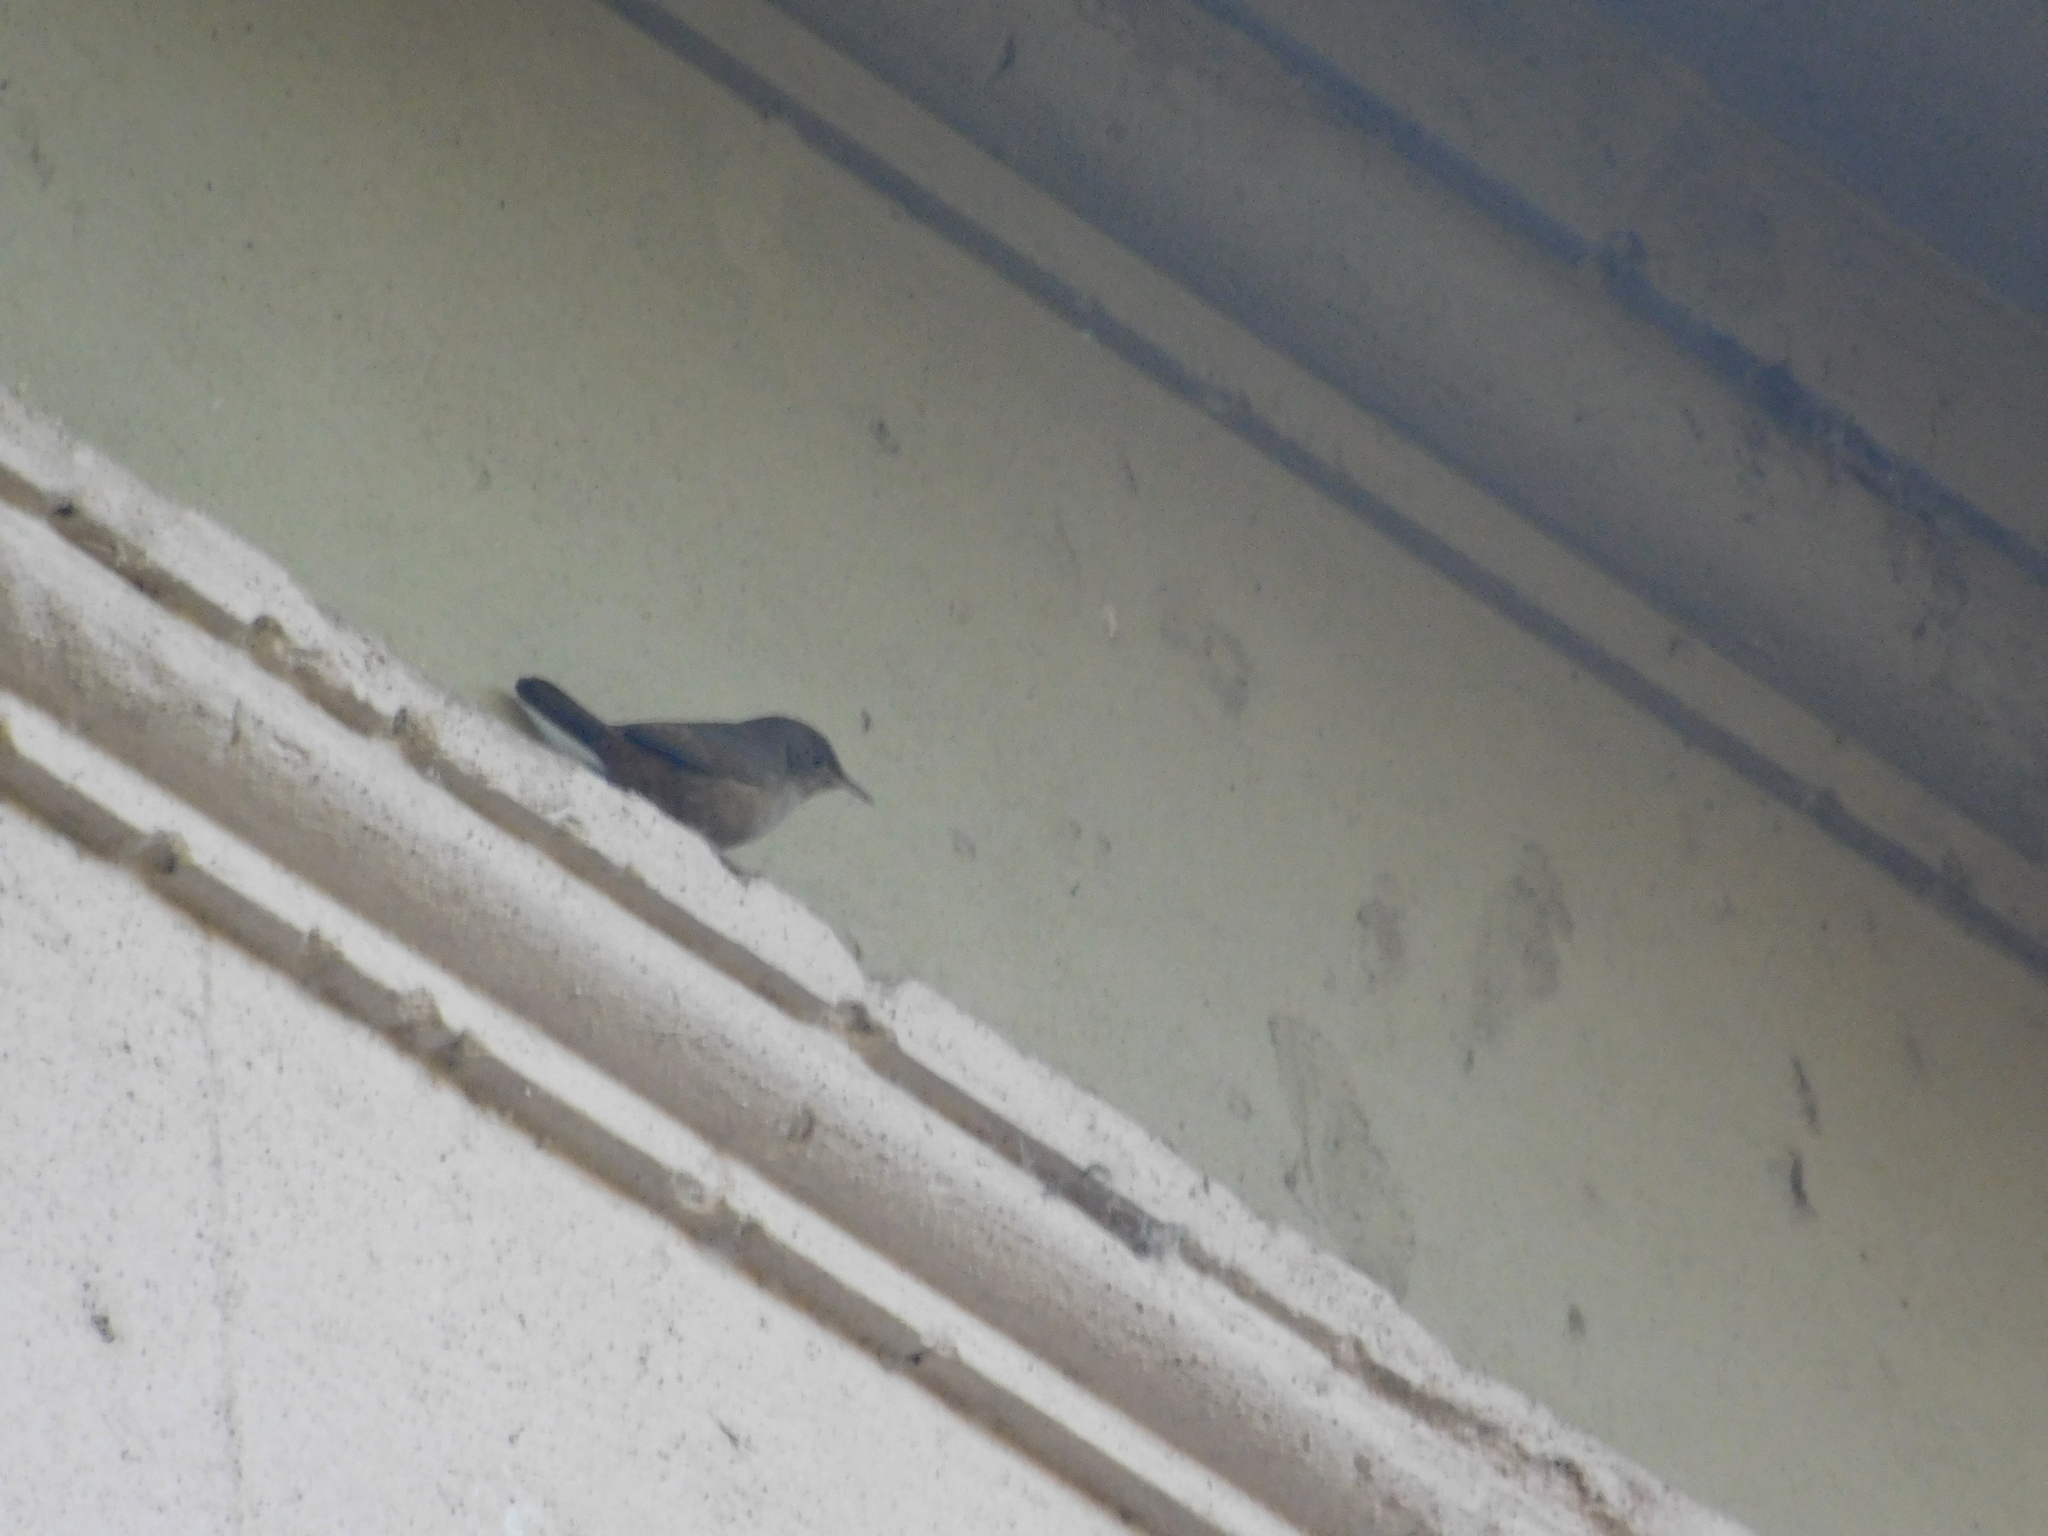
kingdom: Animalia
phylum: Chordata
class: Aves
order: Passeriformes
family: Troglodytidae
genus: Troglodytes
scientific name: Troglodytes aedon
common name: House wren
